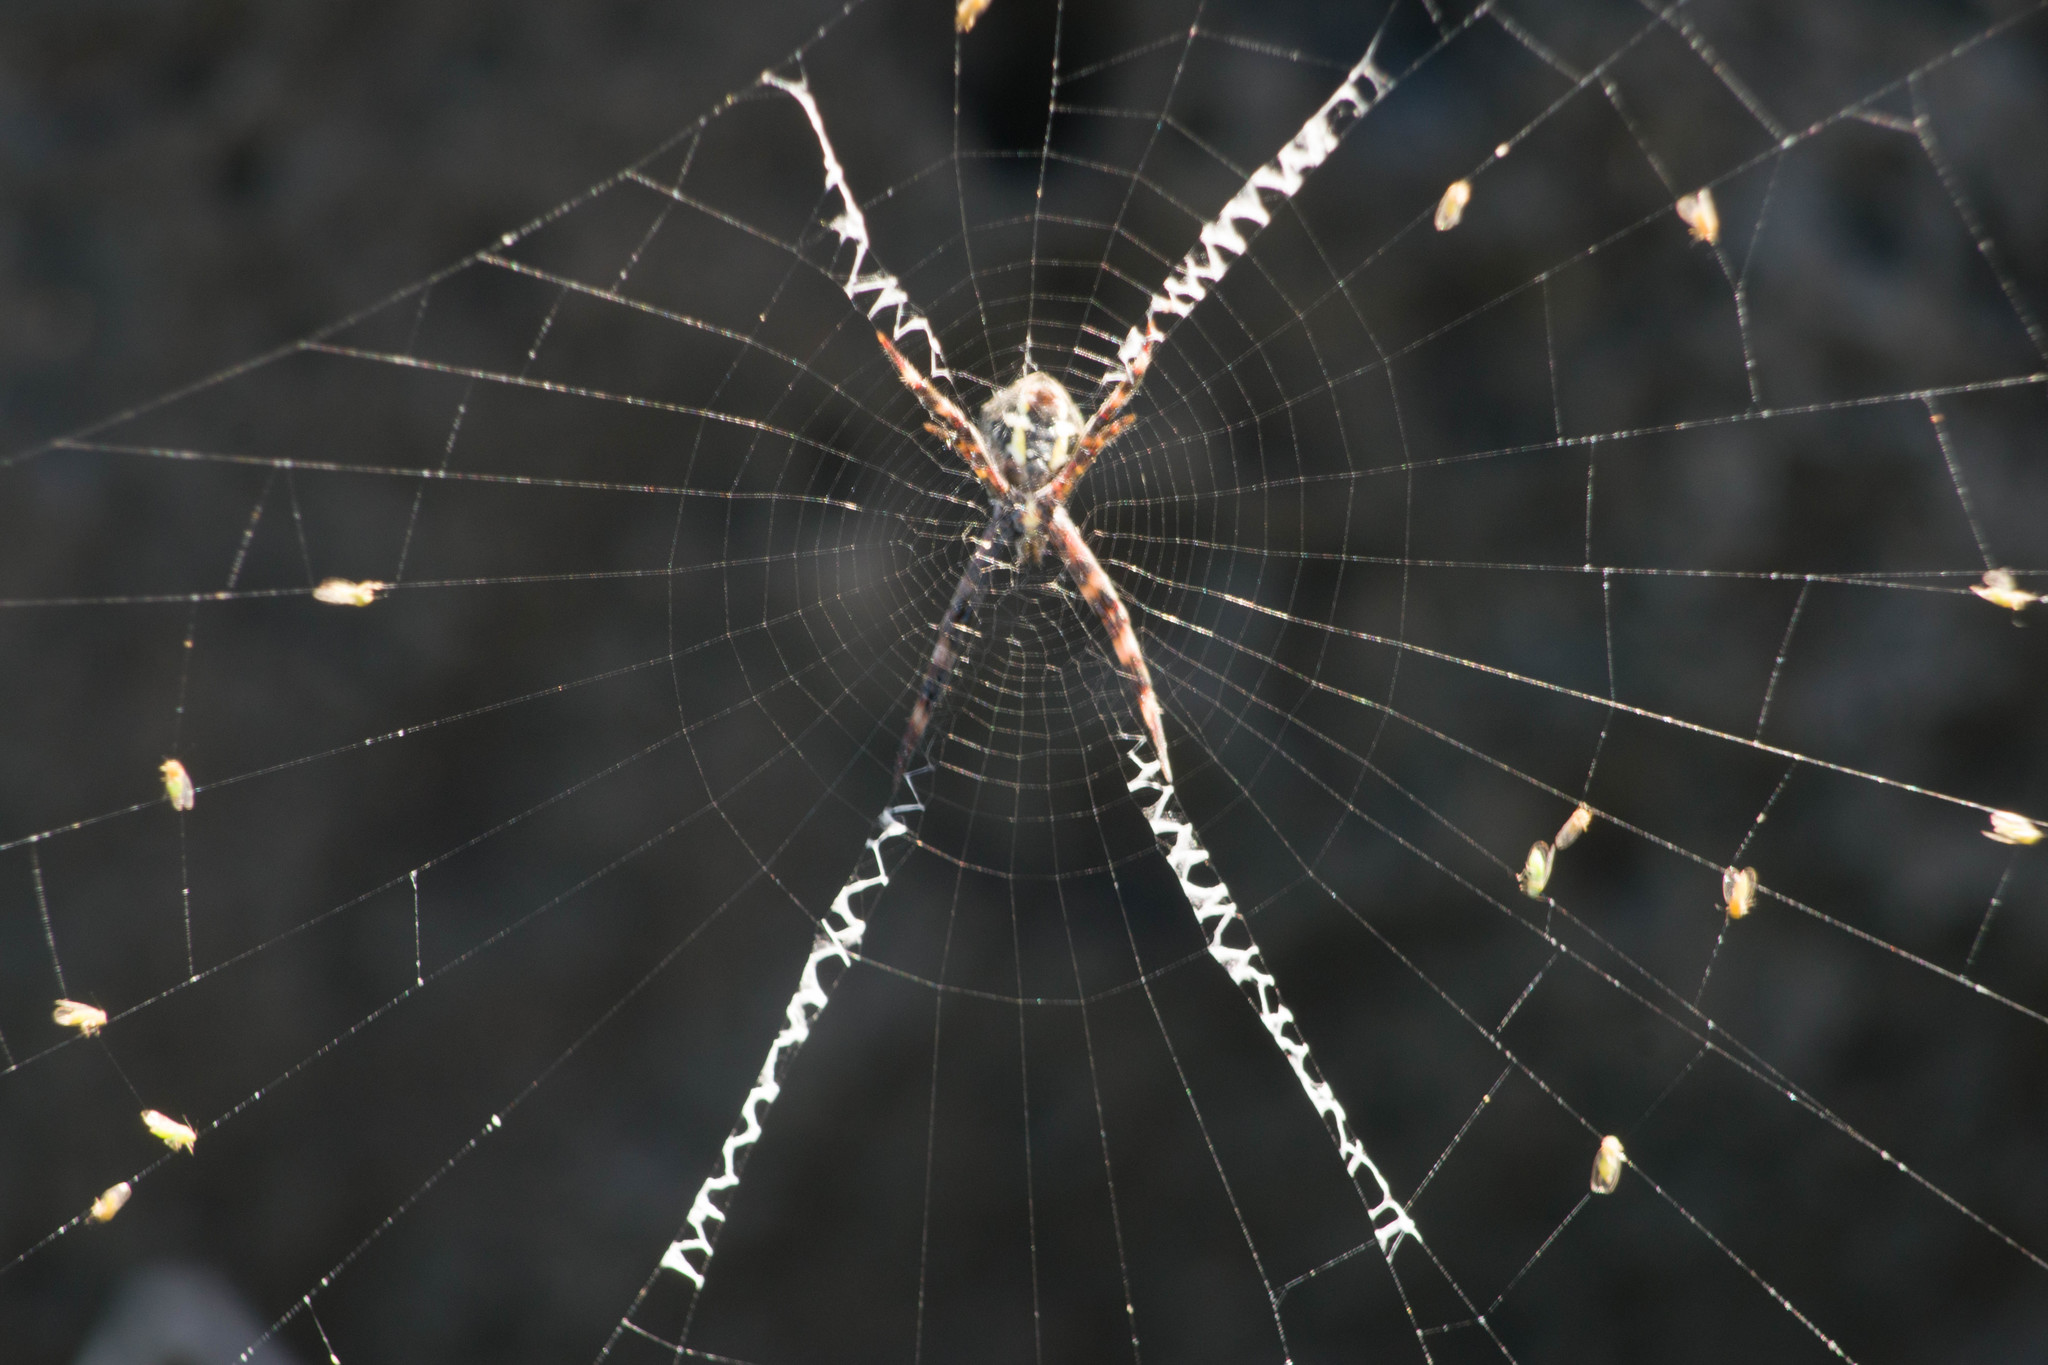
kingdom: Animalia
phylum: Arthropoda
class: Arachnida
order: Araneae
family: Araneidae
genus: Argiope
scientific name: Argiope appensa
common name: Garden spider
